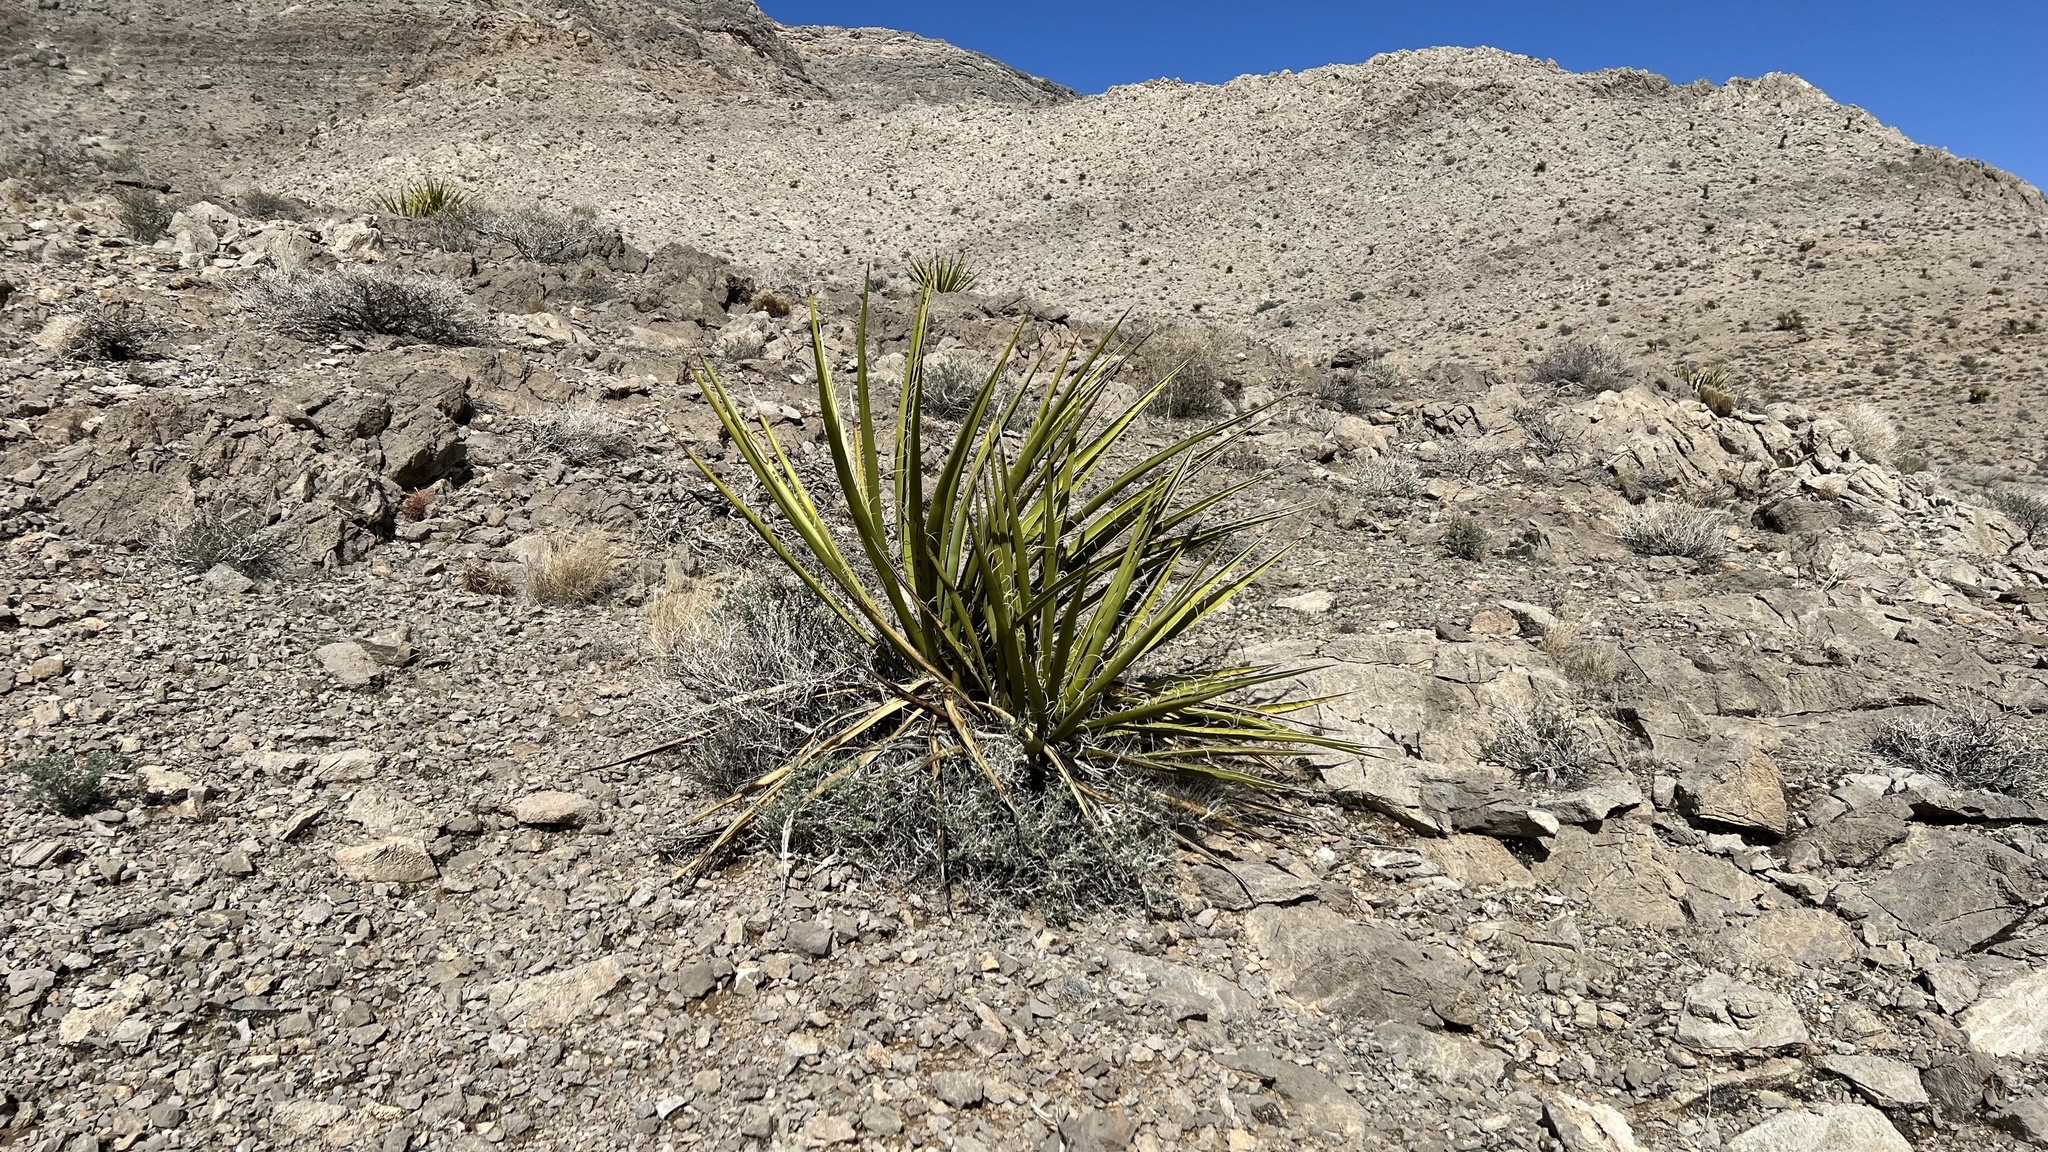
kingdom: Plantae
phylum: Tracheophyta
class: Liliopsida
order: Asparagales
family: Asparagaceae
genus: Yucca
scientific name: Yucca schidigera
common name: Mojave yucca
